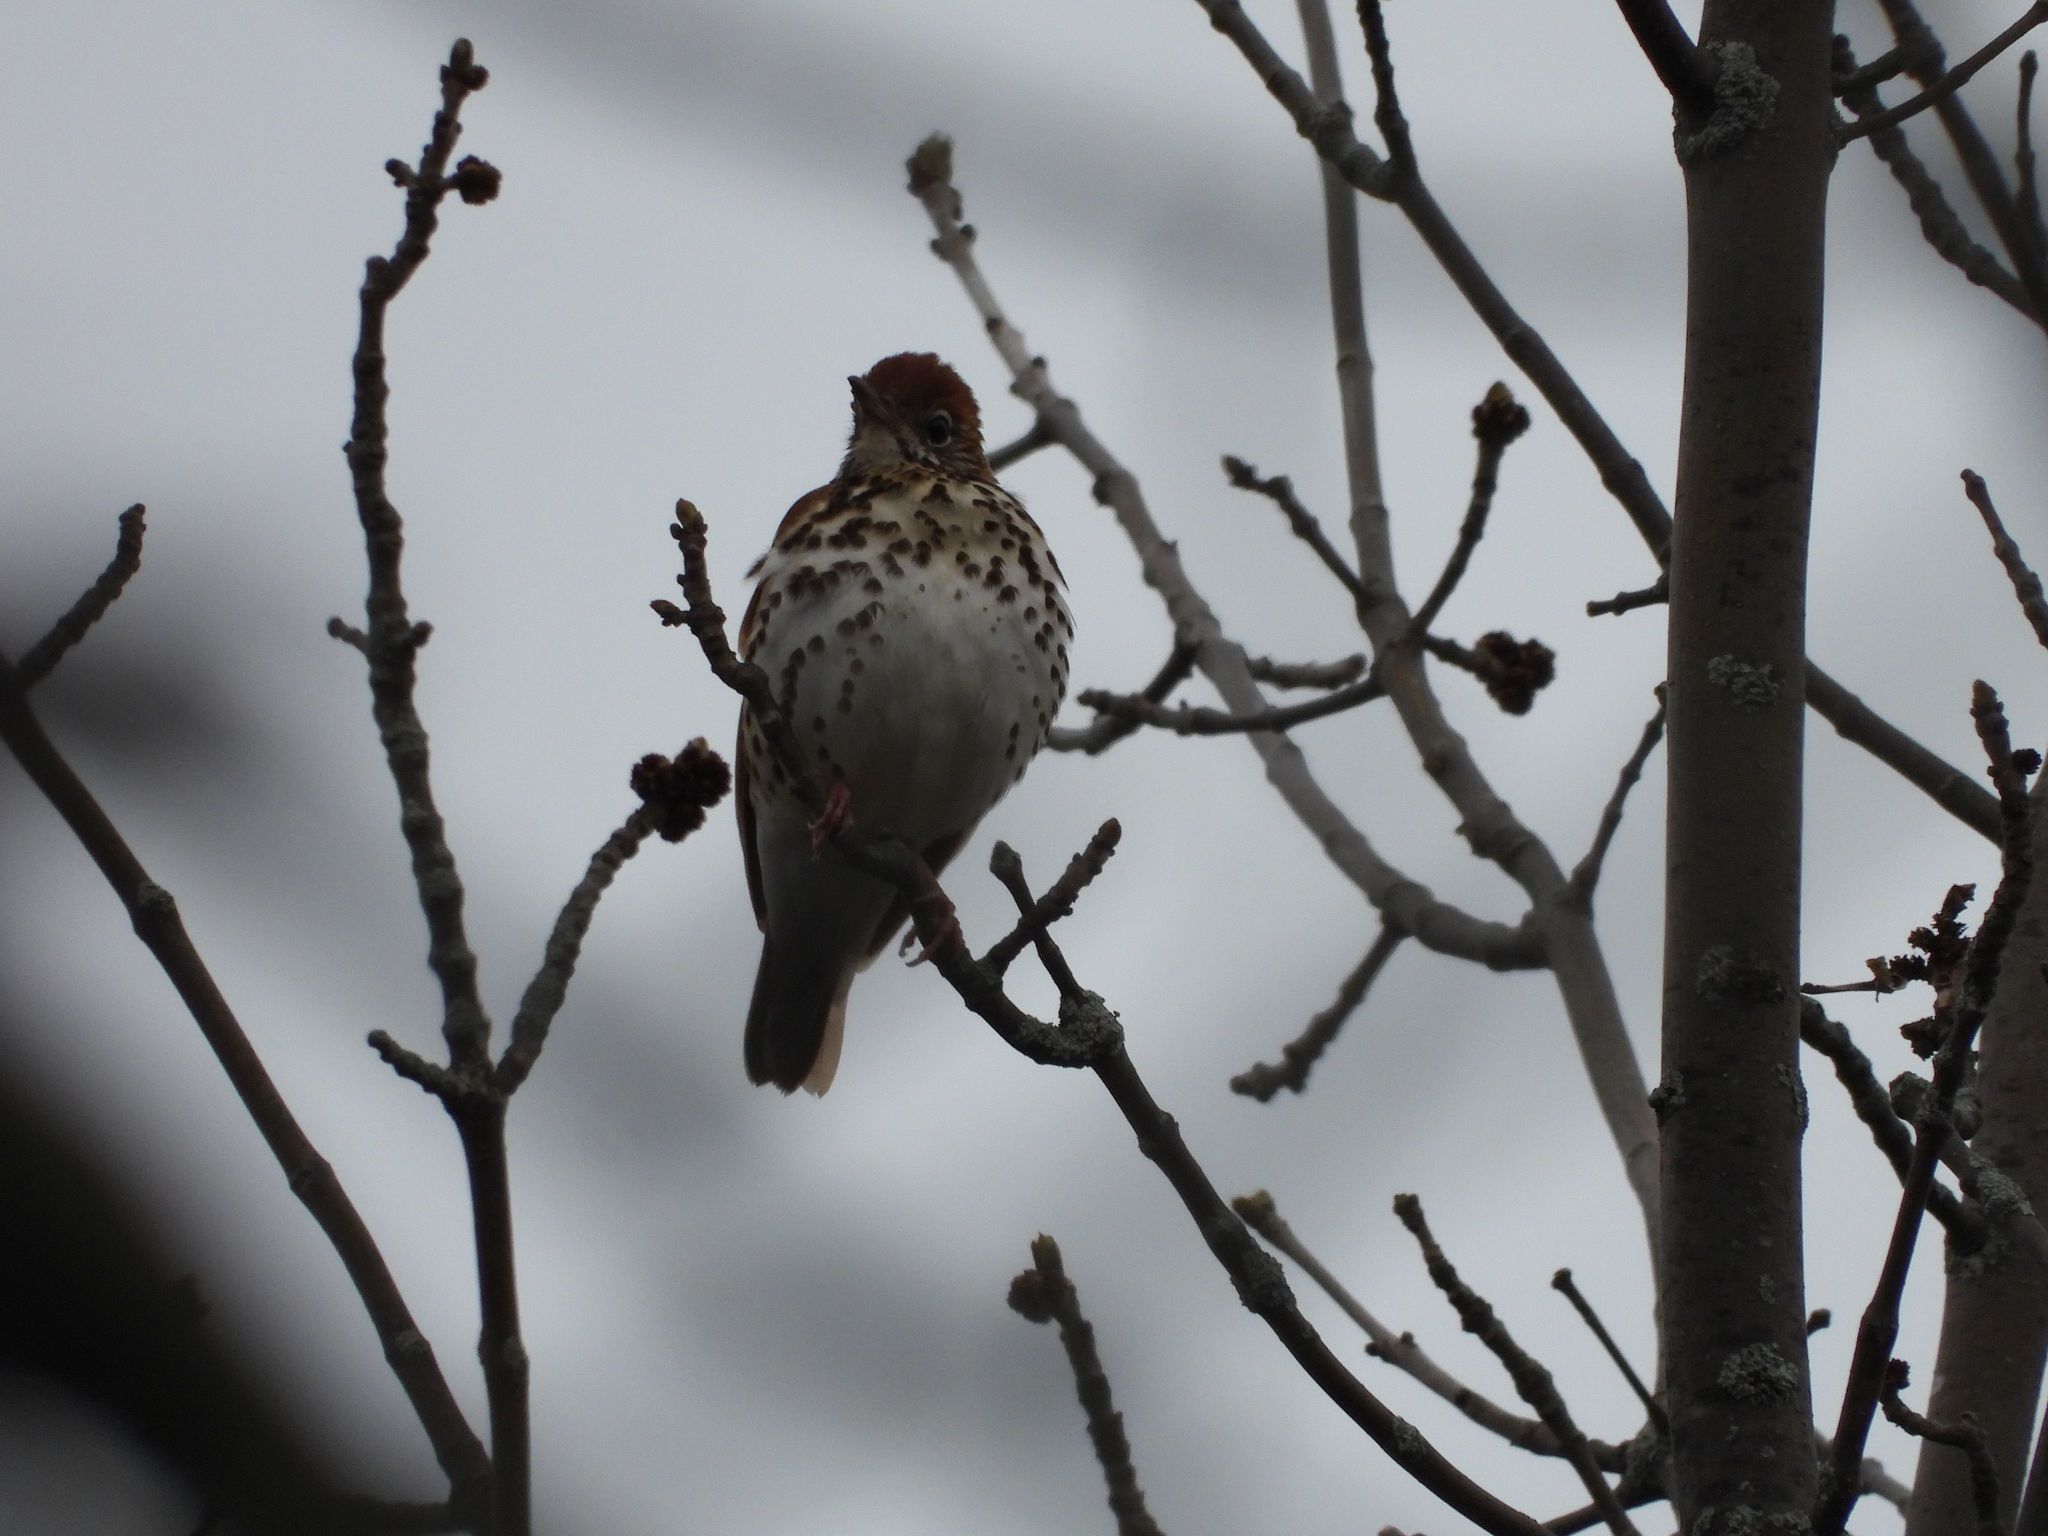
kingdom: Animalia
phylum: Chordata
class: Aves
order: Passeriformes
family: Turdidae
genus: Hylocichla
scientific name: Hylocichla mustelina
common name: Wood thrush
